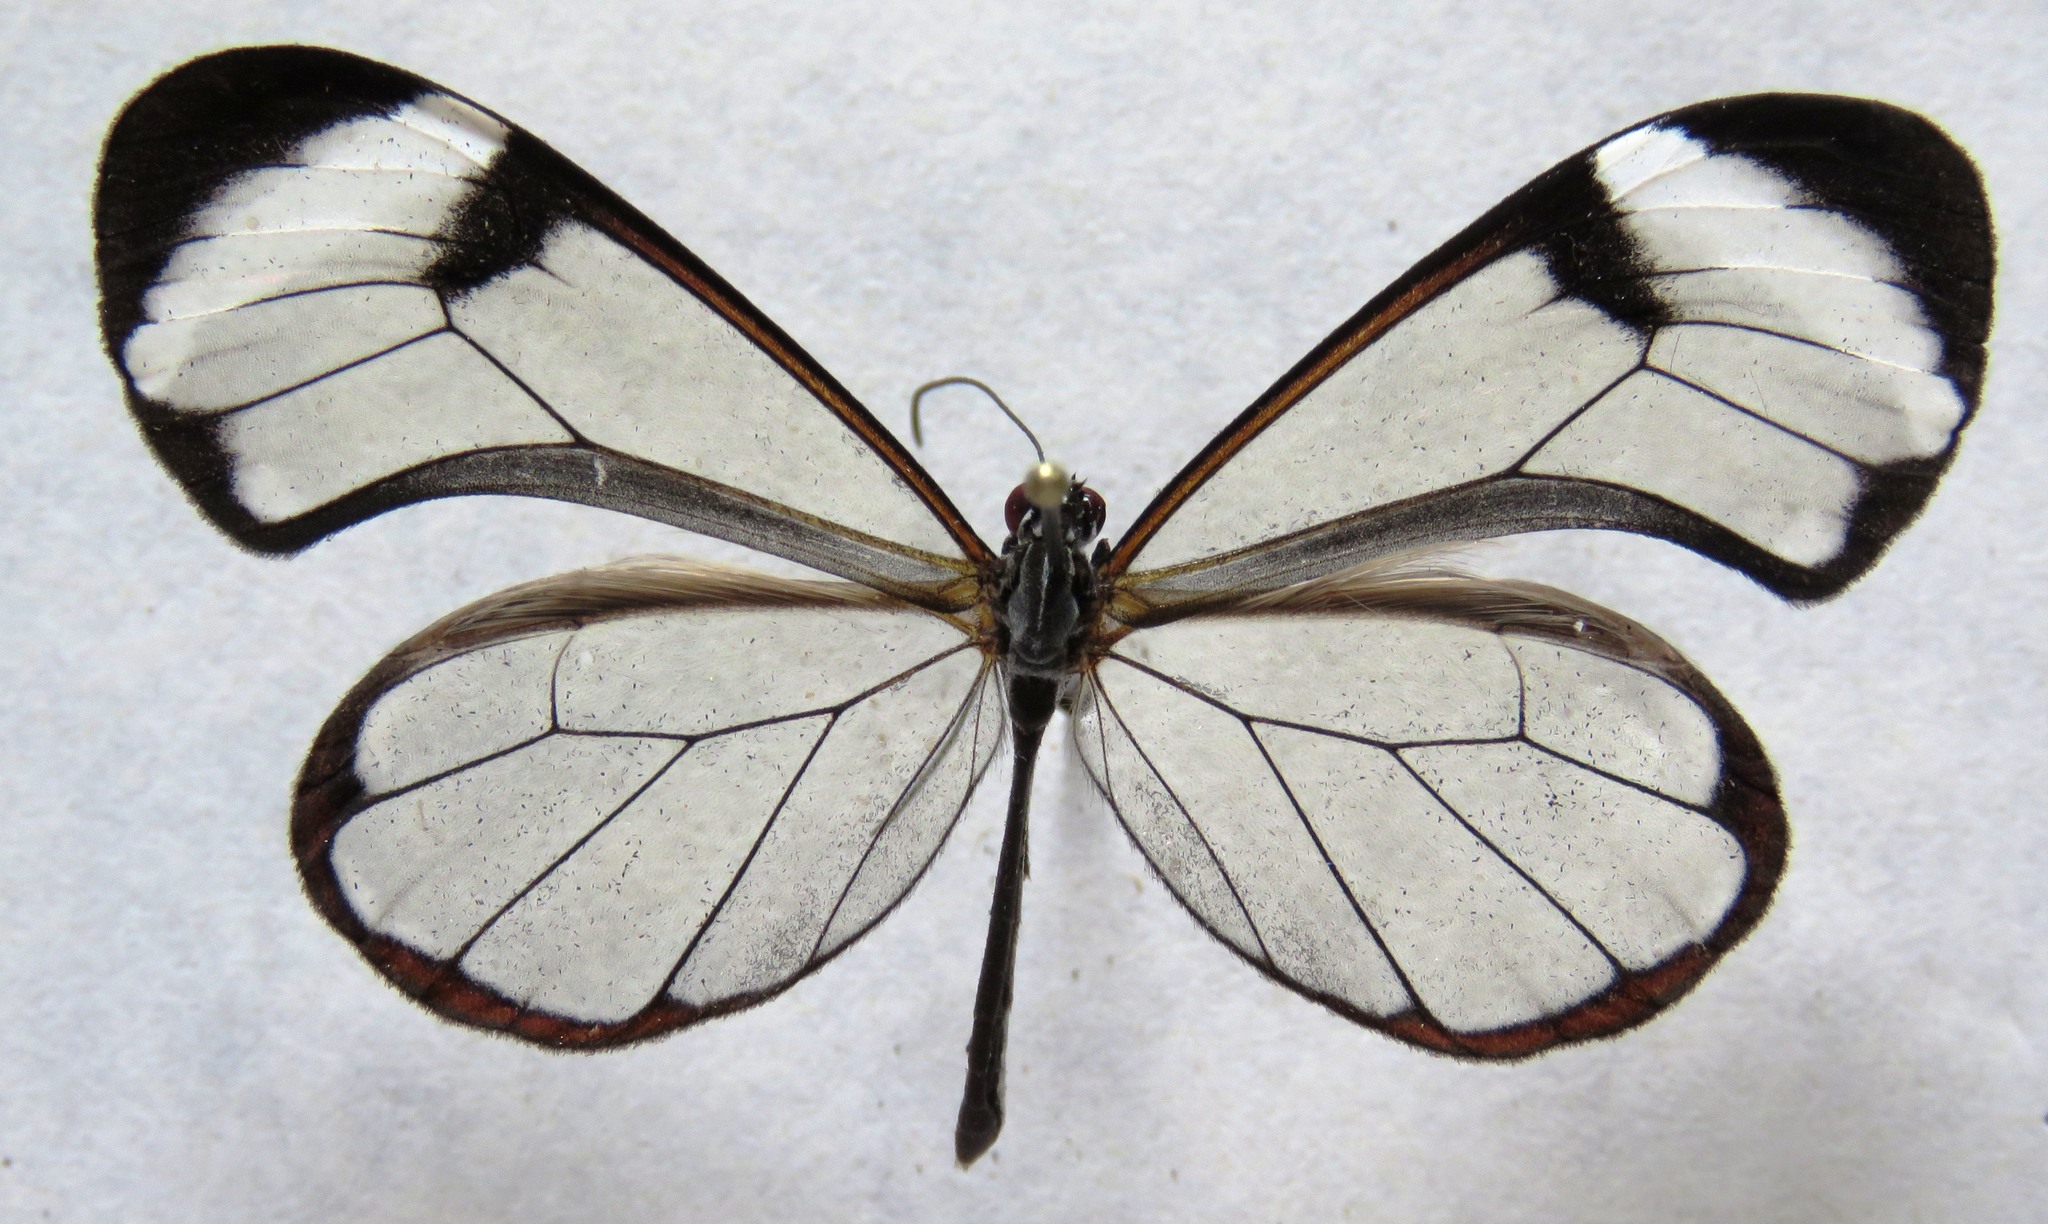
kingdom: Animalia
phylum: Arthropoda
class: Insecta
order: Lepidoptera
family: Nymphalidae
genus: Greta
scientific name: Greta morgane
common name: Thick-tipped greta
